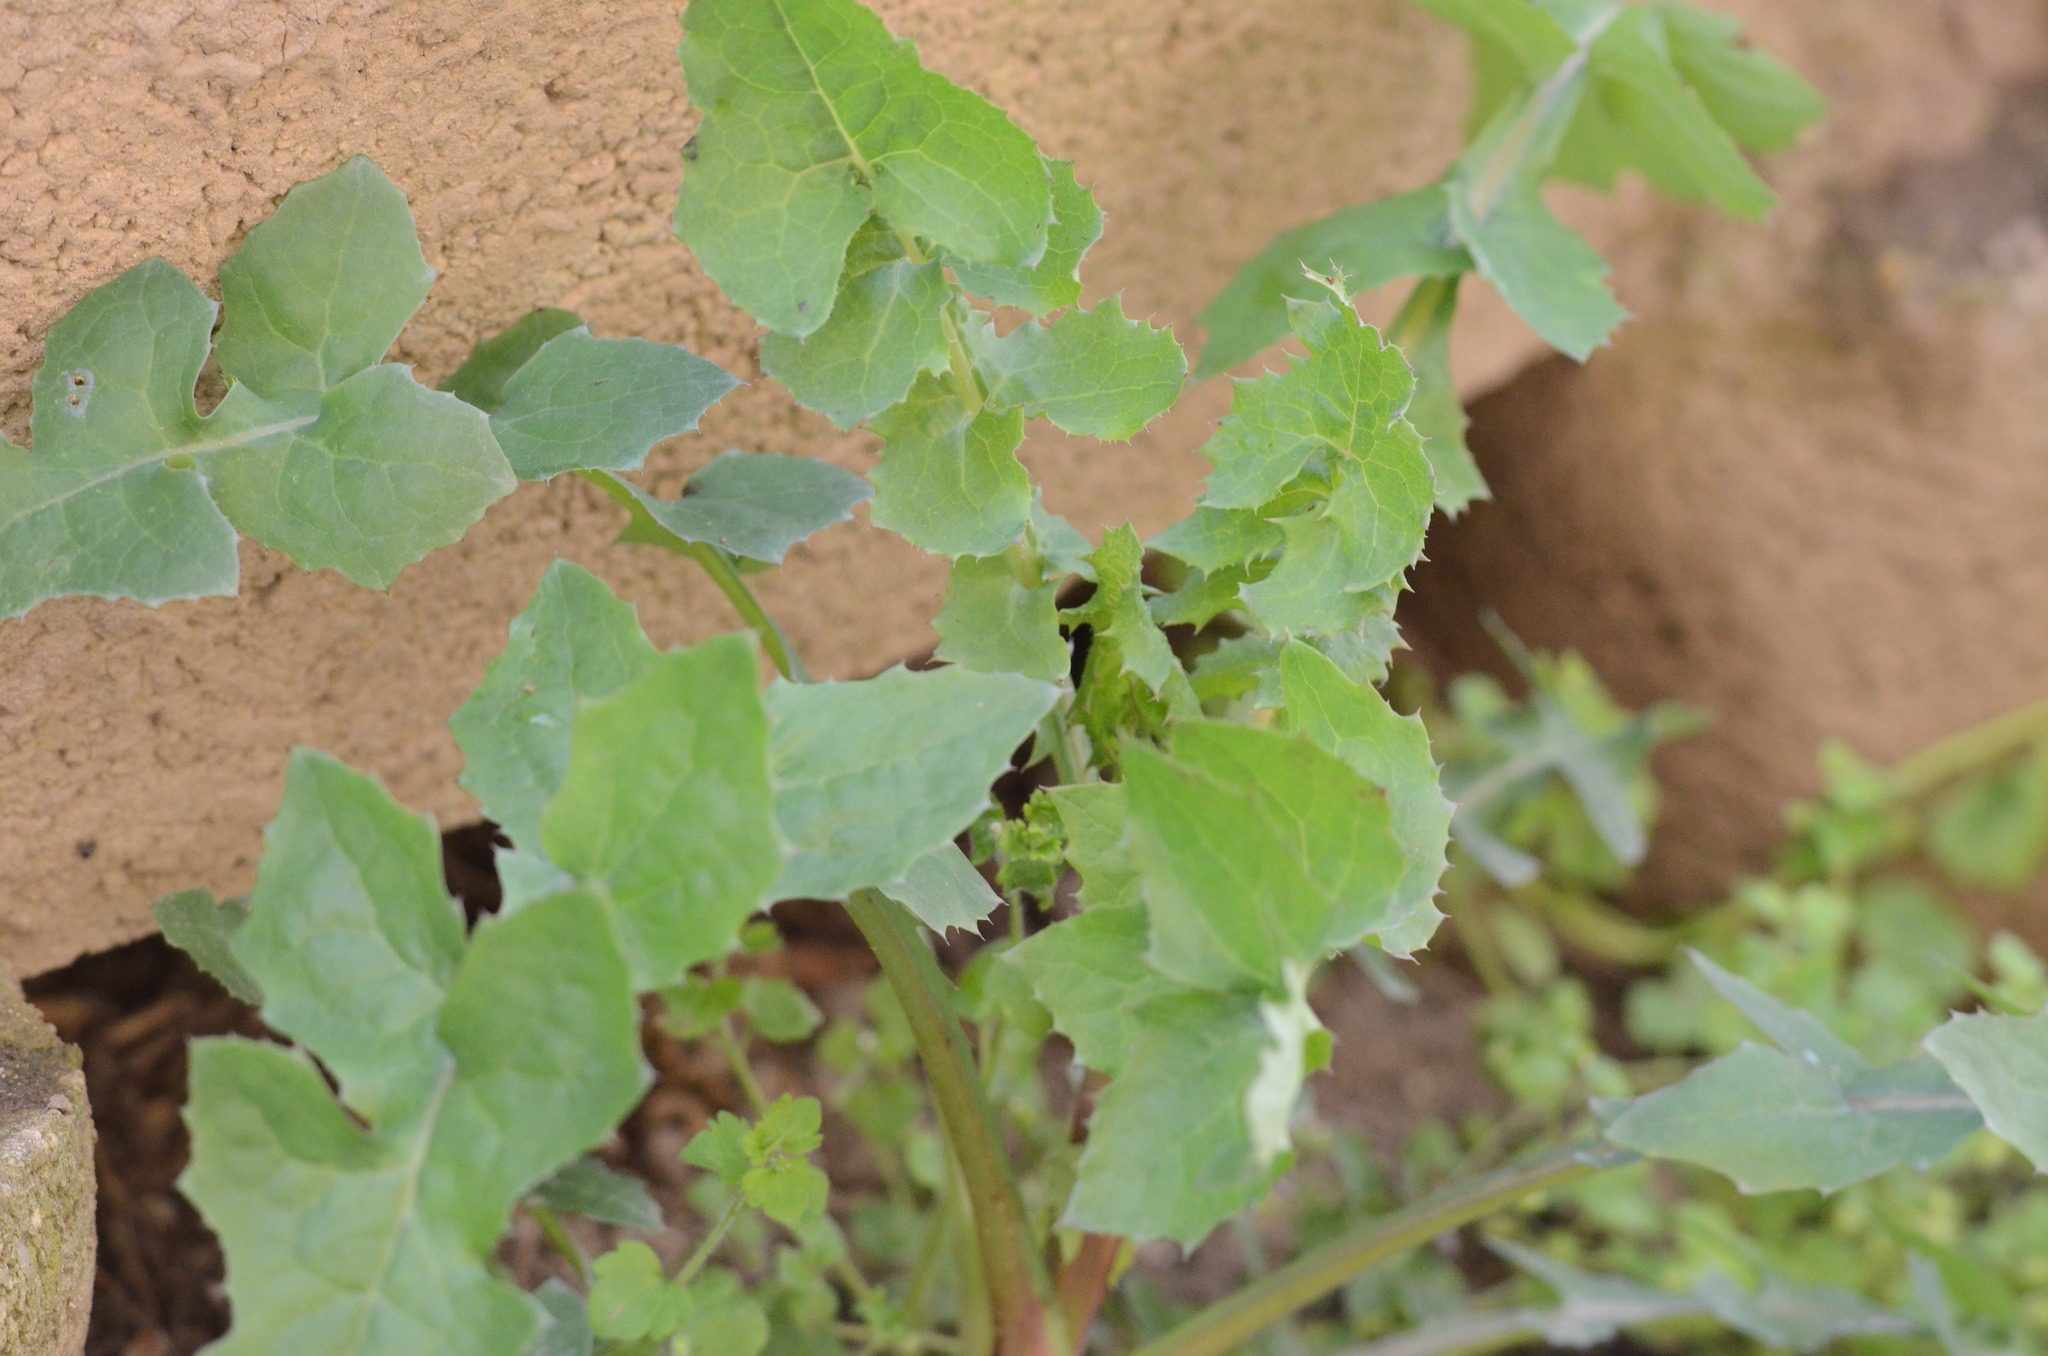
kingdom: Plantae
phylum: Tracheophyta
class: Magnoliopsida
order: Asterales
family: Asteraceae
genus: Sonchus
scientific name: Sonchus oleraceus
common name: Common sowthistle
